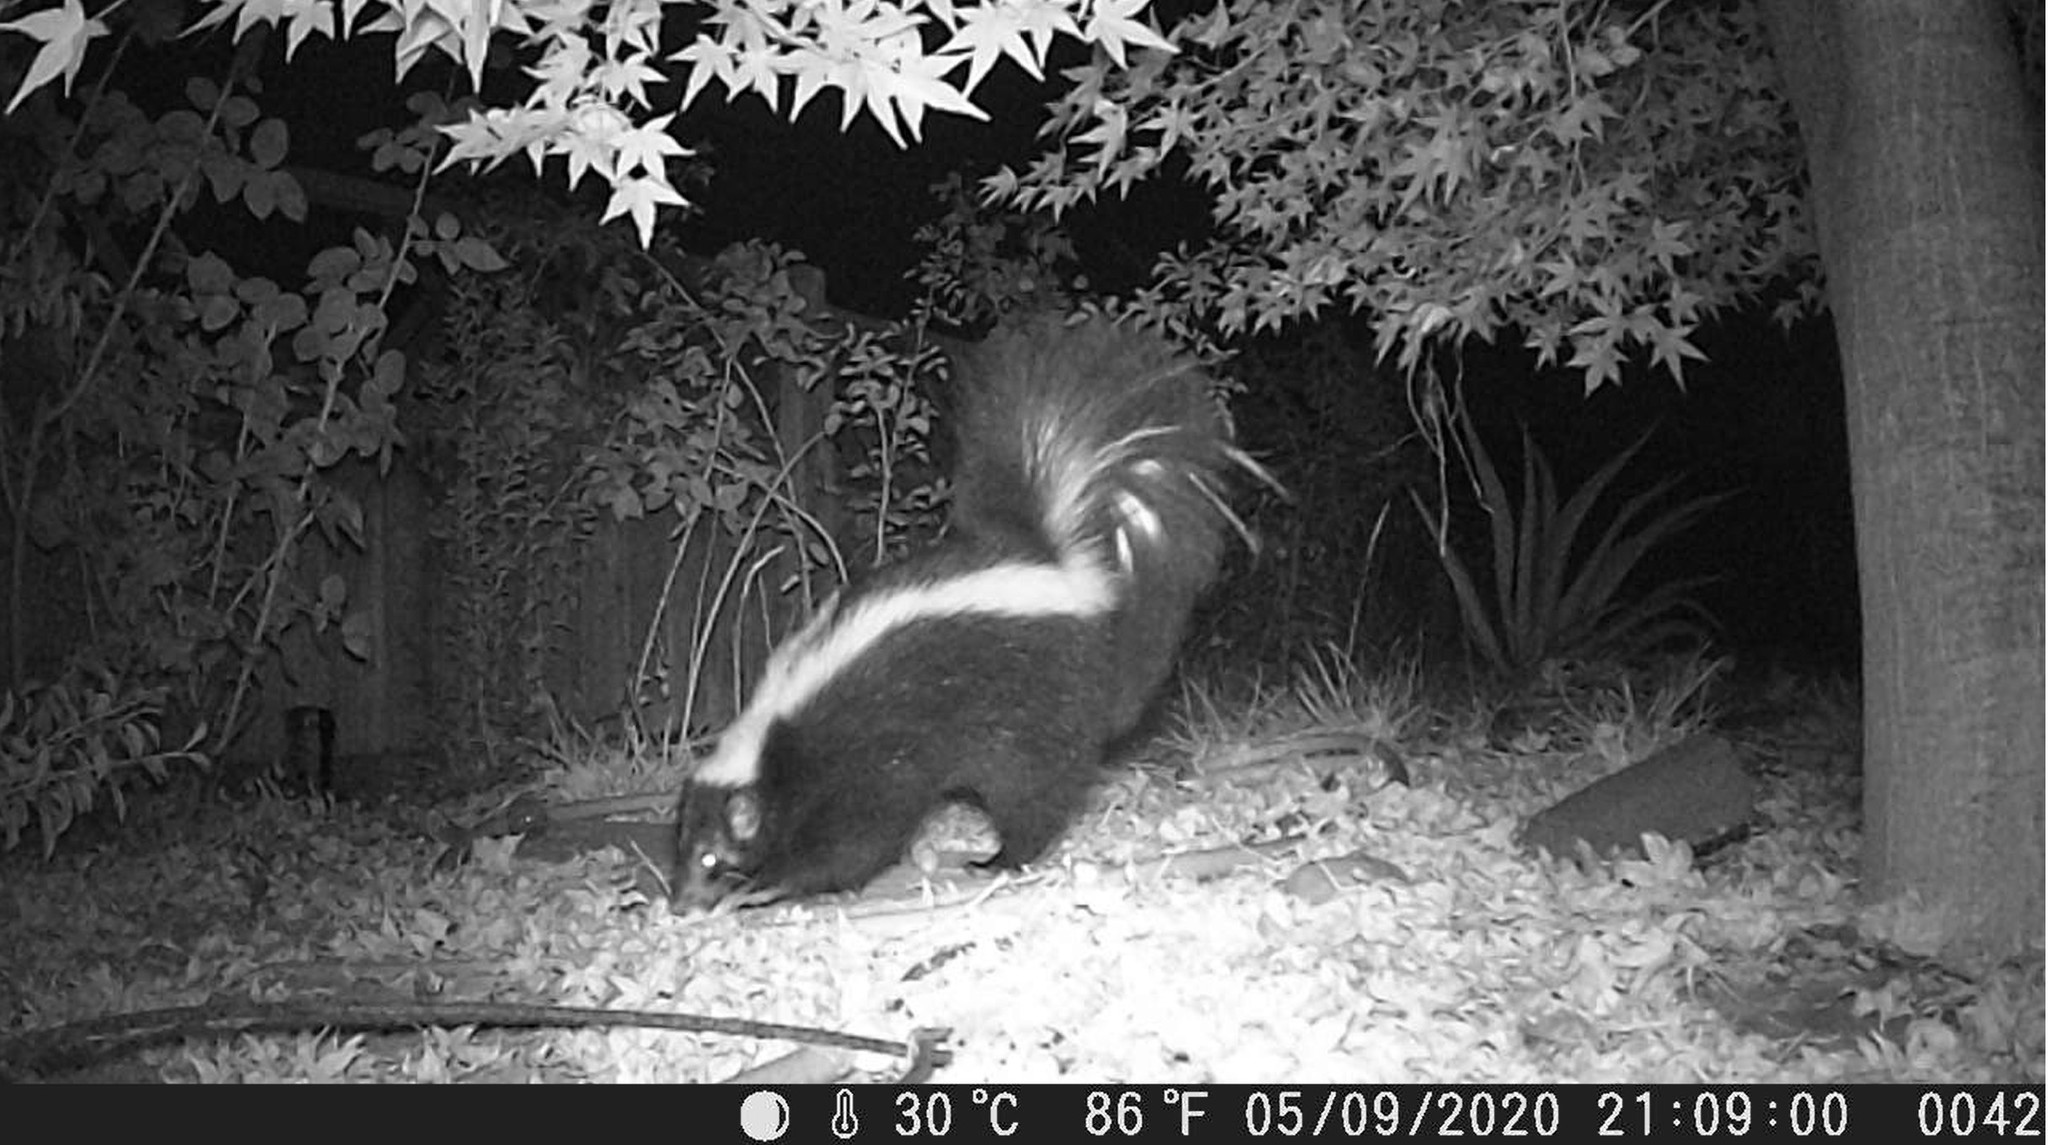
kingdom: Animalia
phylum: Chordata
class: Mammalia
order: Carnivora
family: Mephitidae
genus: Mephitis
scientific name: Mephitis mephitis
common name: Striped skunk
